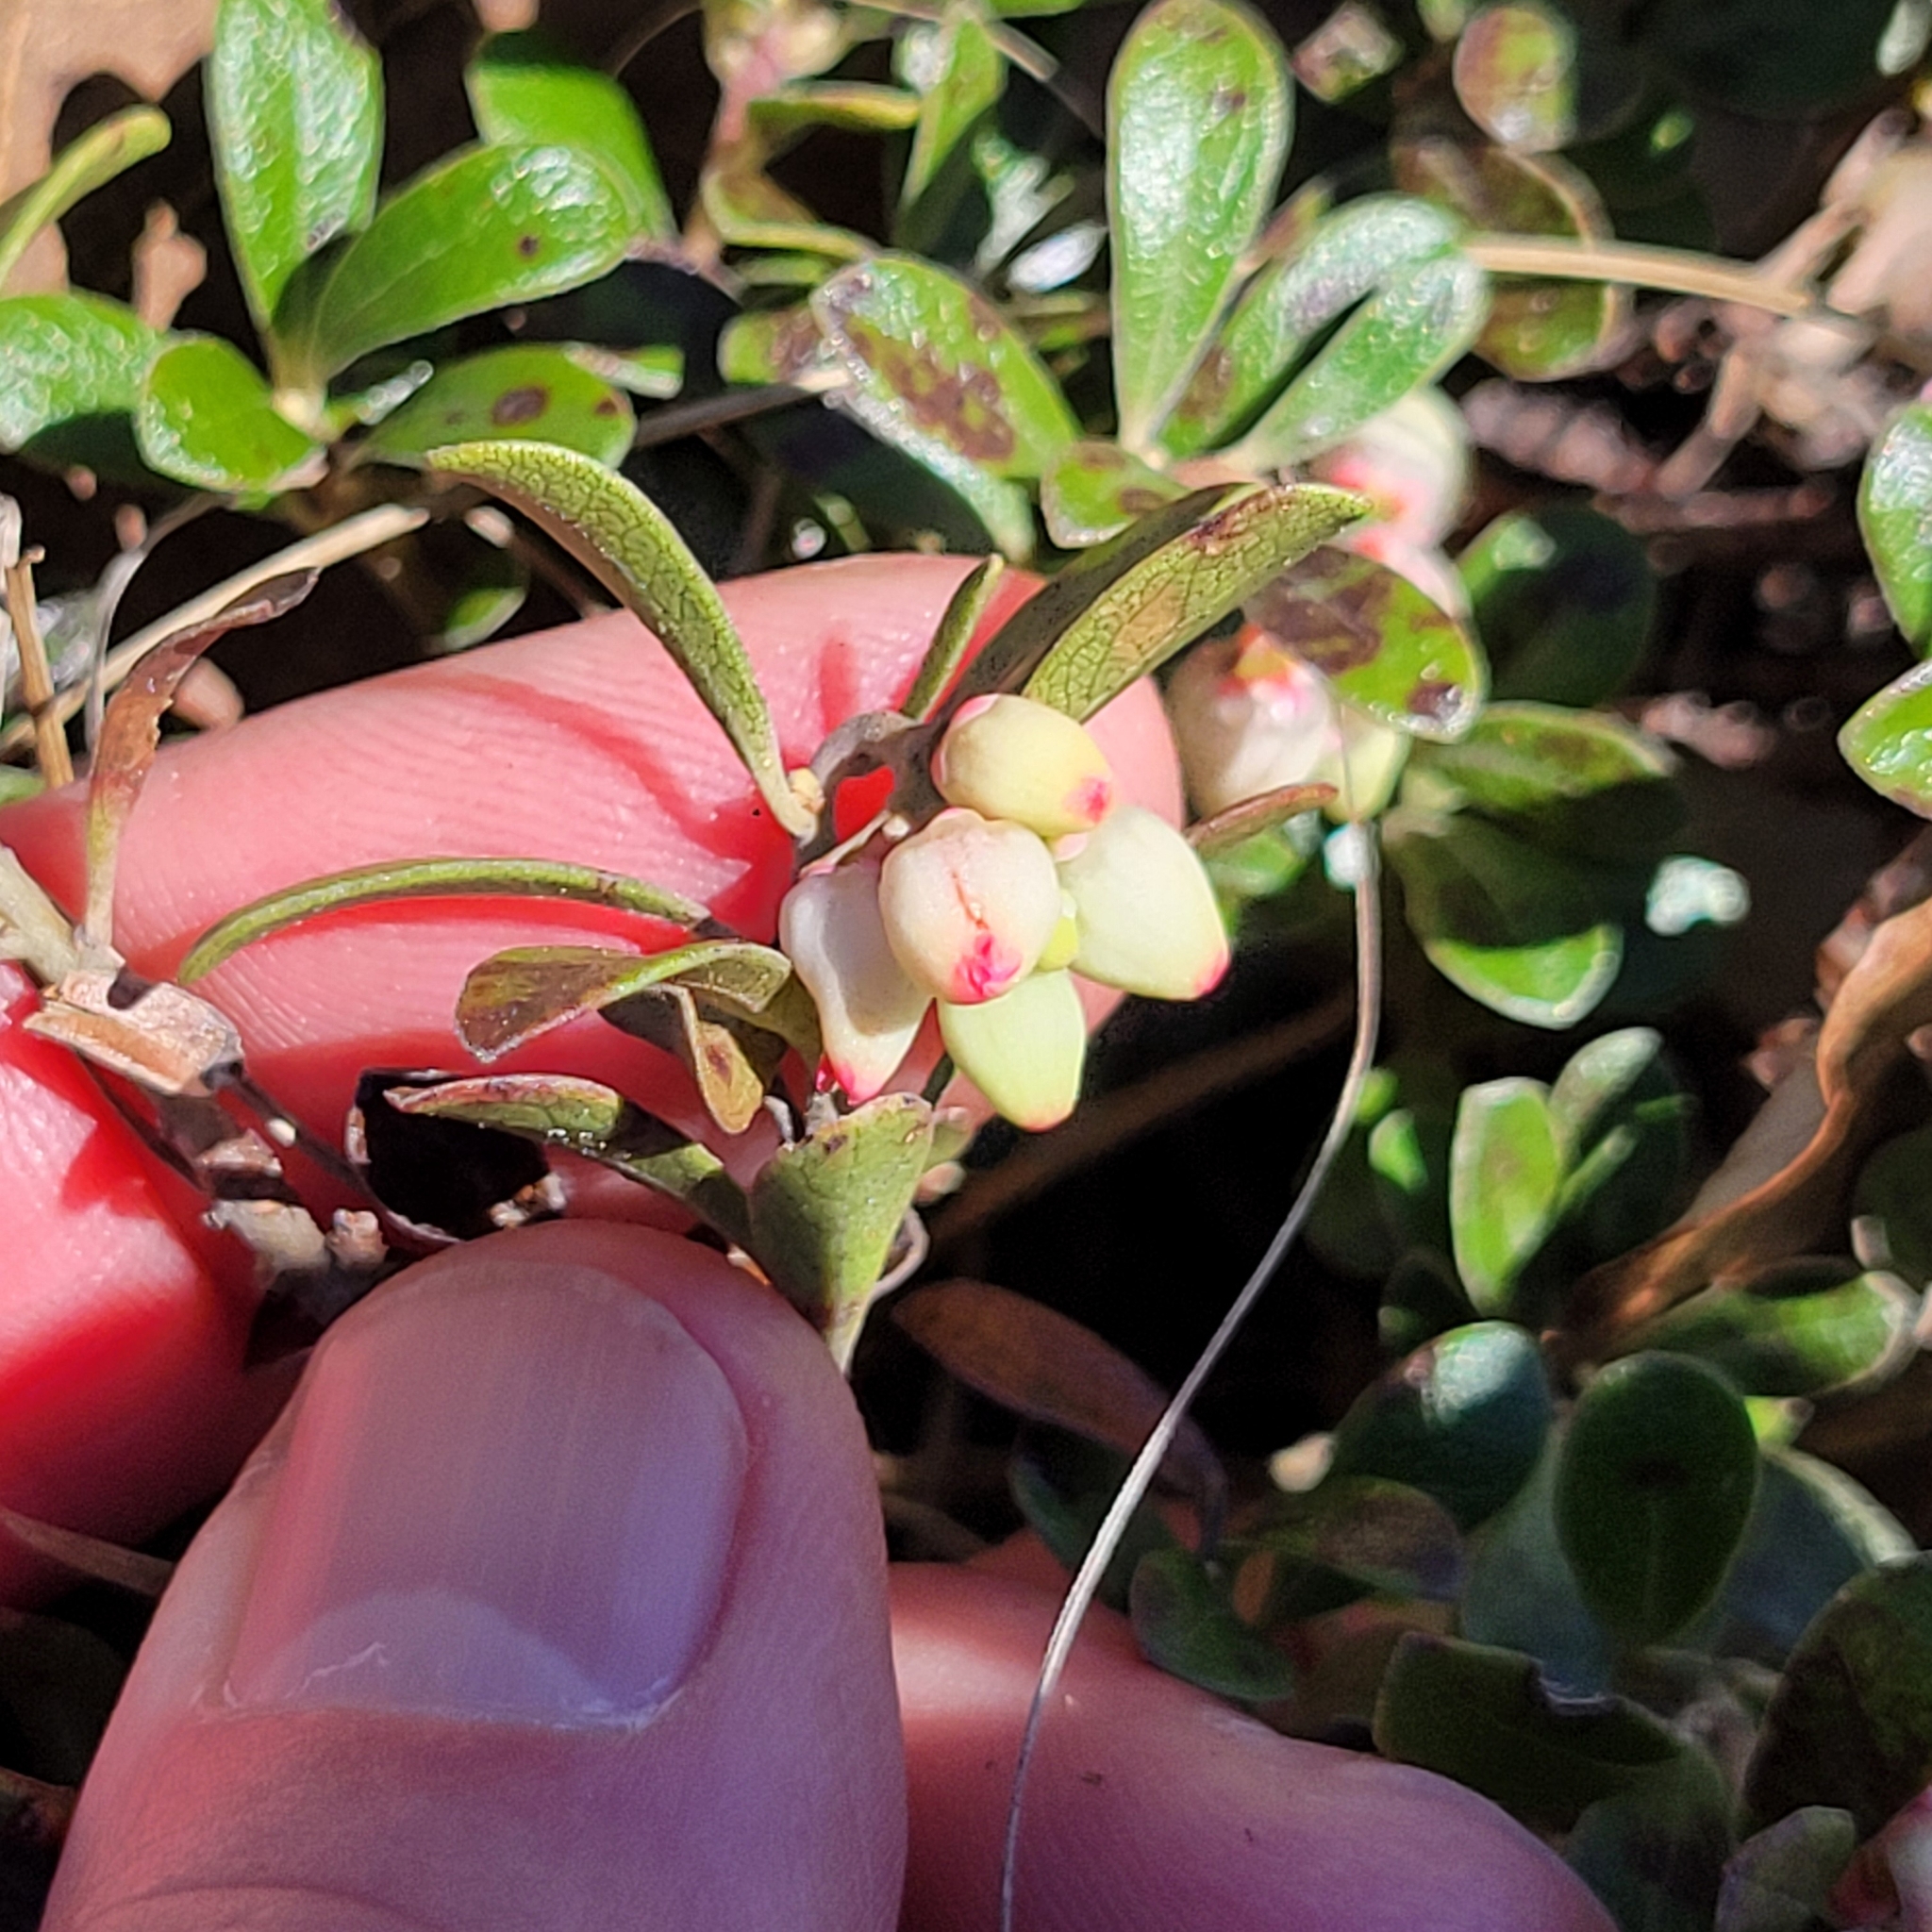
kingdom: Plantae
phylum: Tracheophyta
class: Magnoliopsida
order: Ericales
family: Ericaceae
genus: Arctostaphylos
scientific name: Arctostaphylos uva-ursi
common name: Bearberry
